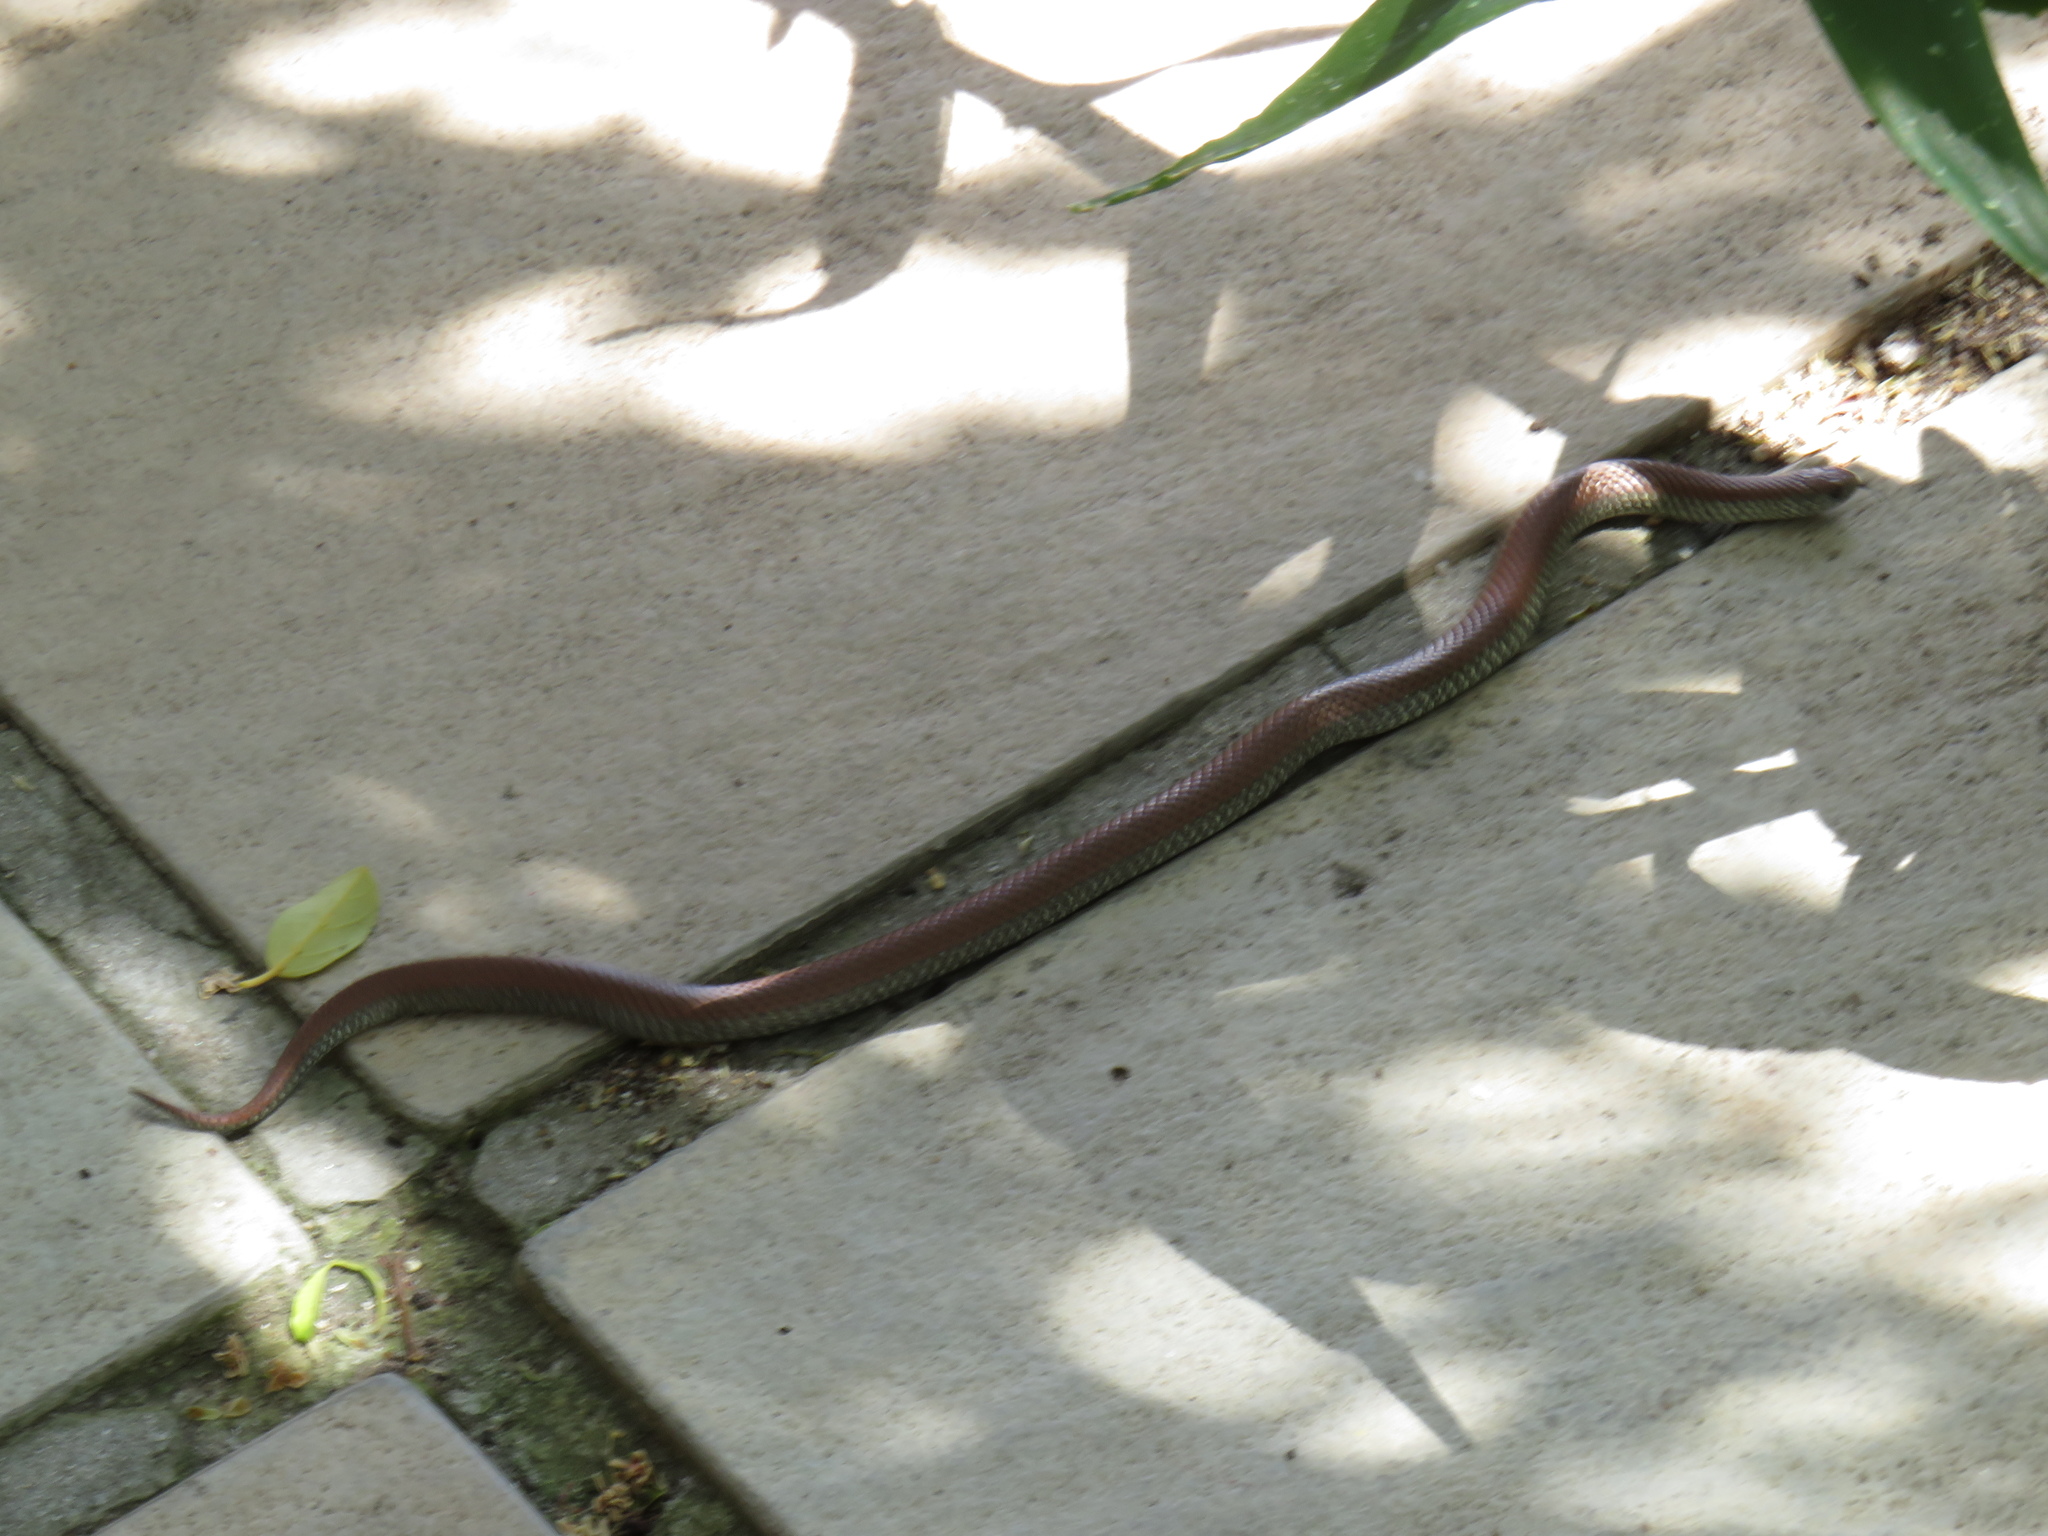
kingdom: Animalia
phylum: Chordata
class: Squamata
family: Pseudoxyrhophiidae
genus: Duberria
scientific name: Duberria lutrix
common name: Common slug eater
